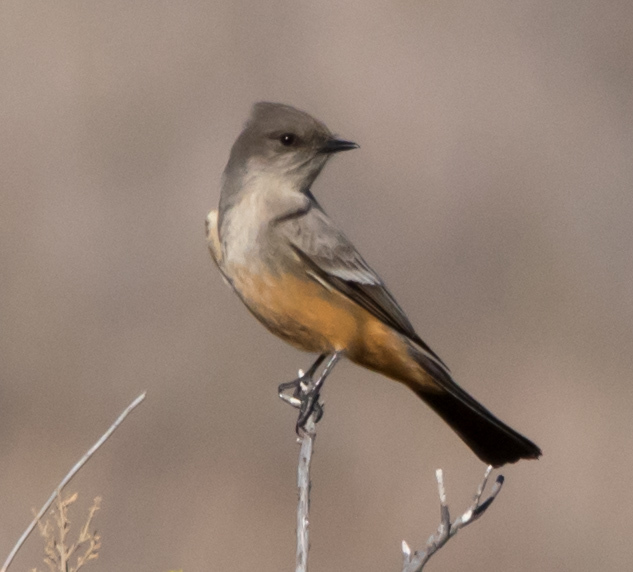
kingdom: Animalia
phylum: Chordata
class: Aves
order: Passeriformes
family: Tyrannidae
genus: Sayornis
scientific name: Sayornis saya
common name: Say's phoebe
